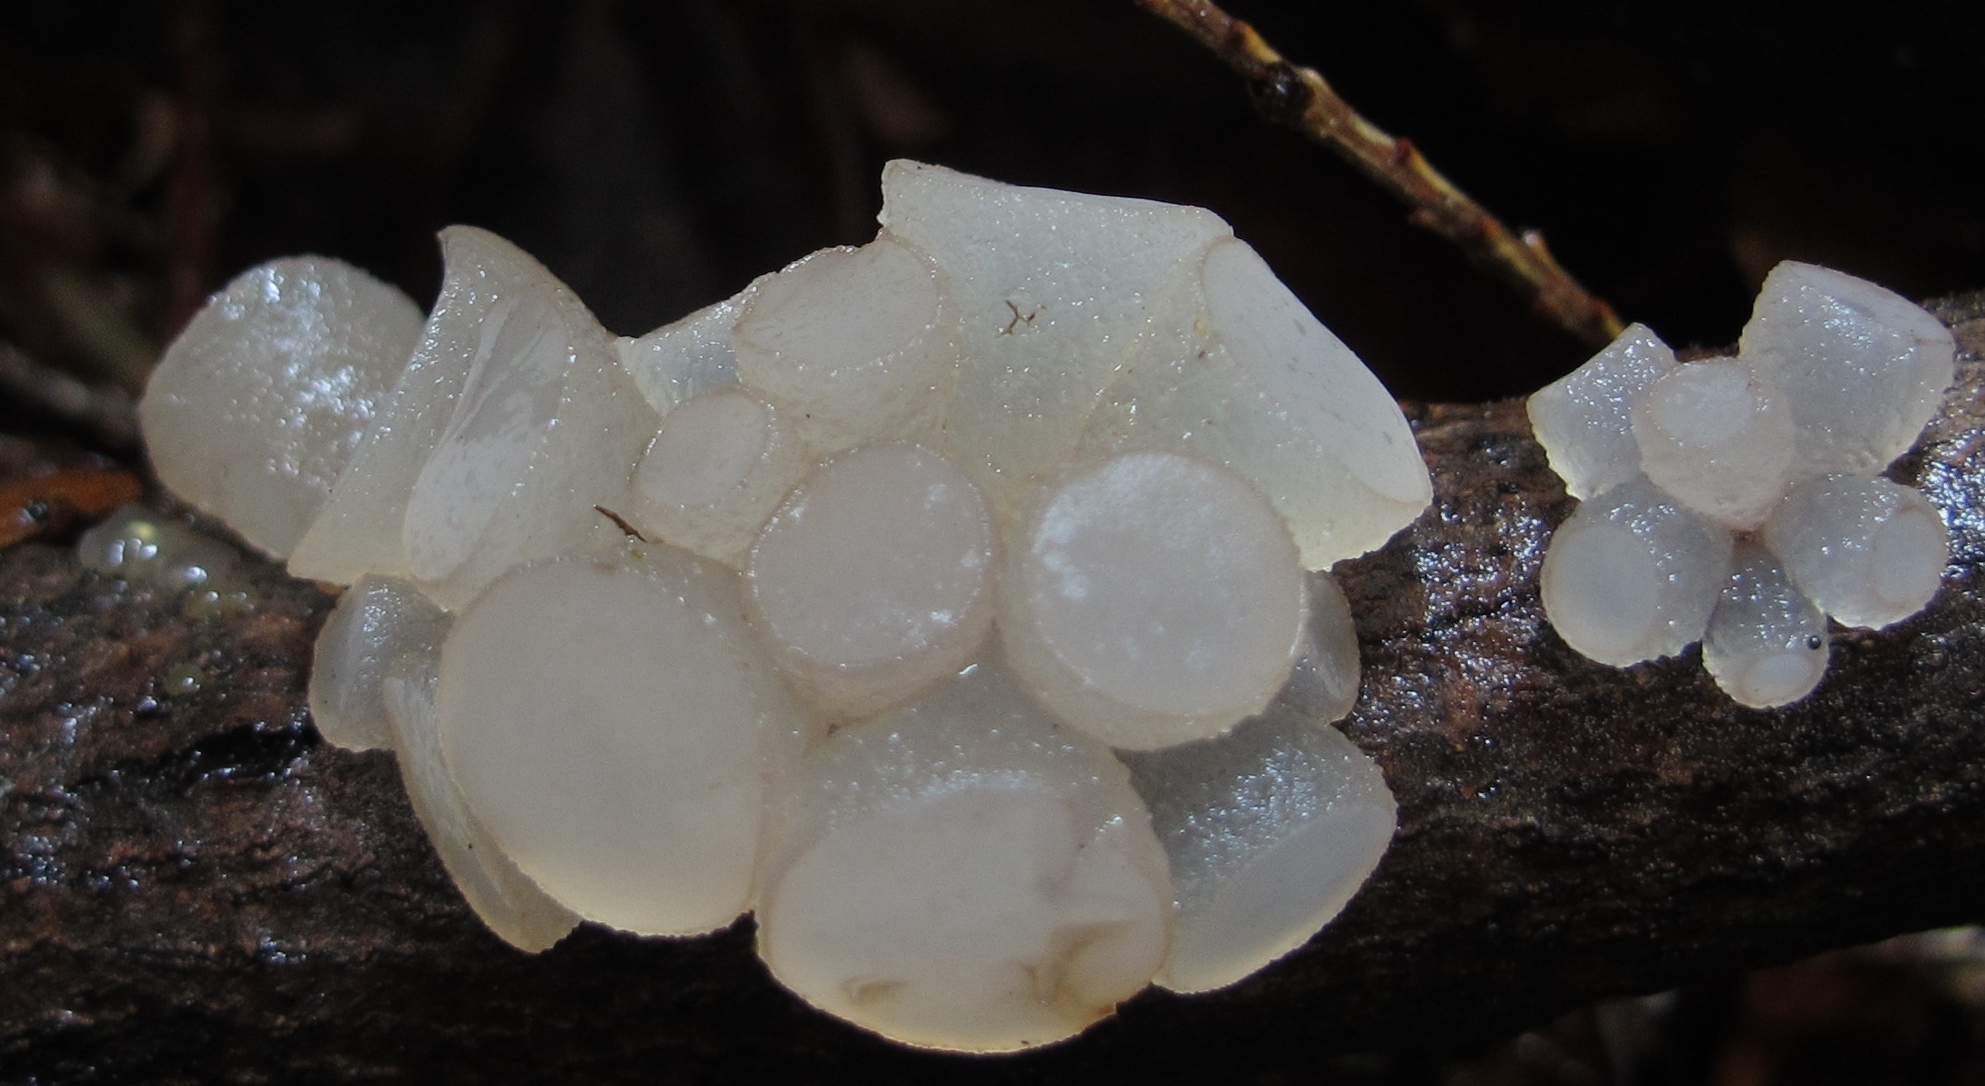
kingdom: Fungi
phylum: Ascomycota
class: Leotiomycetes
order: Helotiales
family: Gelatinodiscaceae
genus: Neobulgaria
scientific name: Neobulgaria pura
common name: Beech jelly-disc
